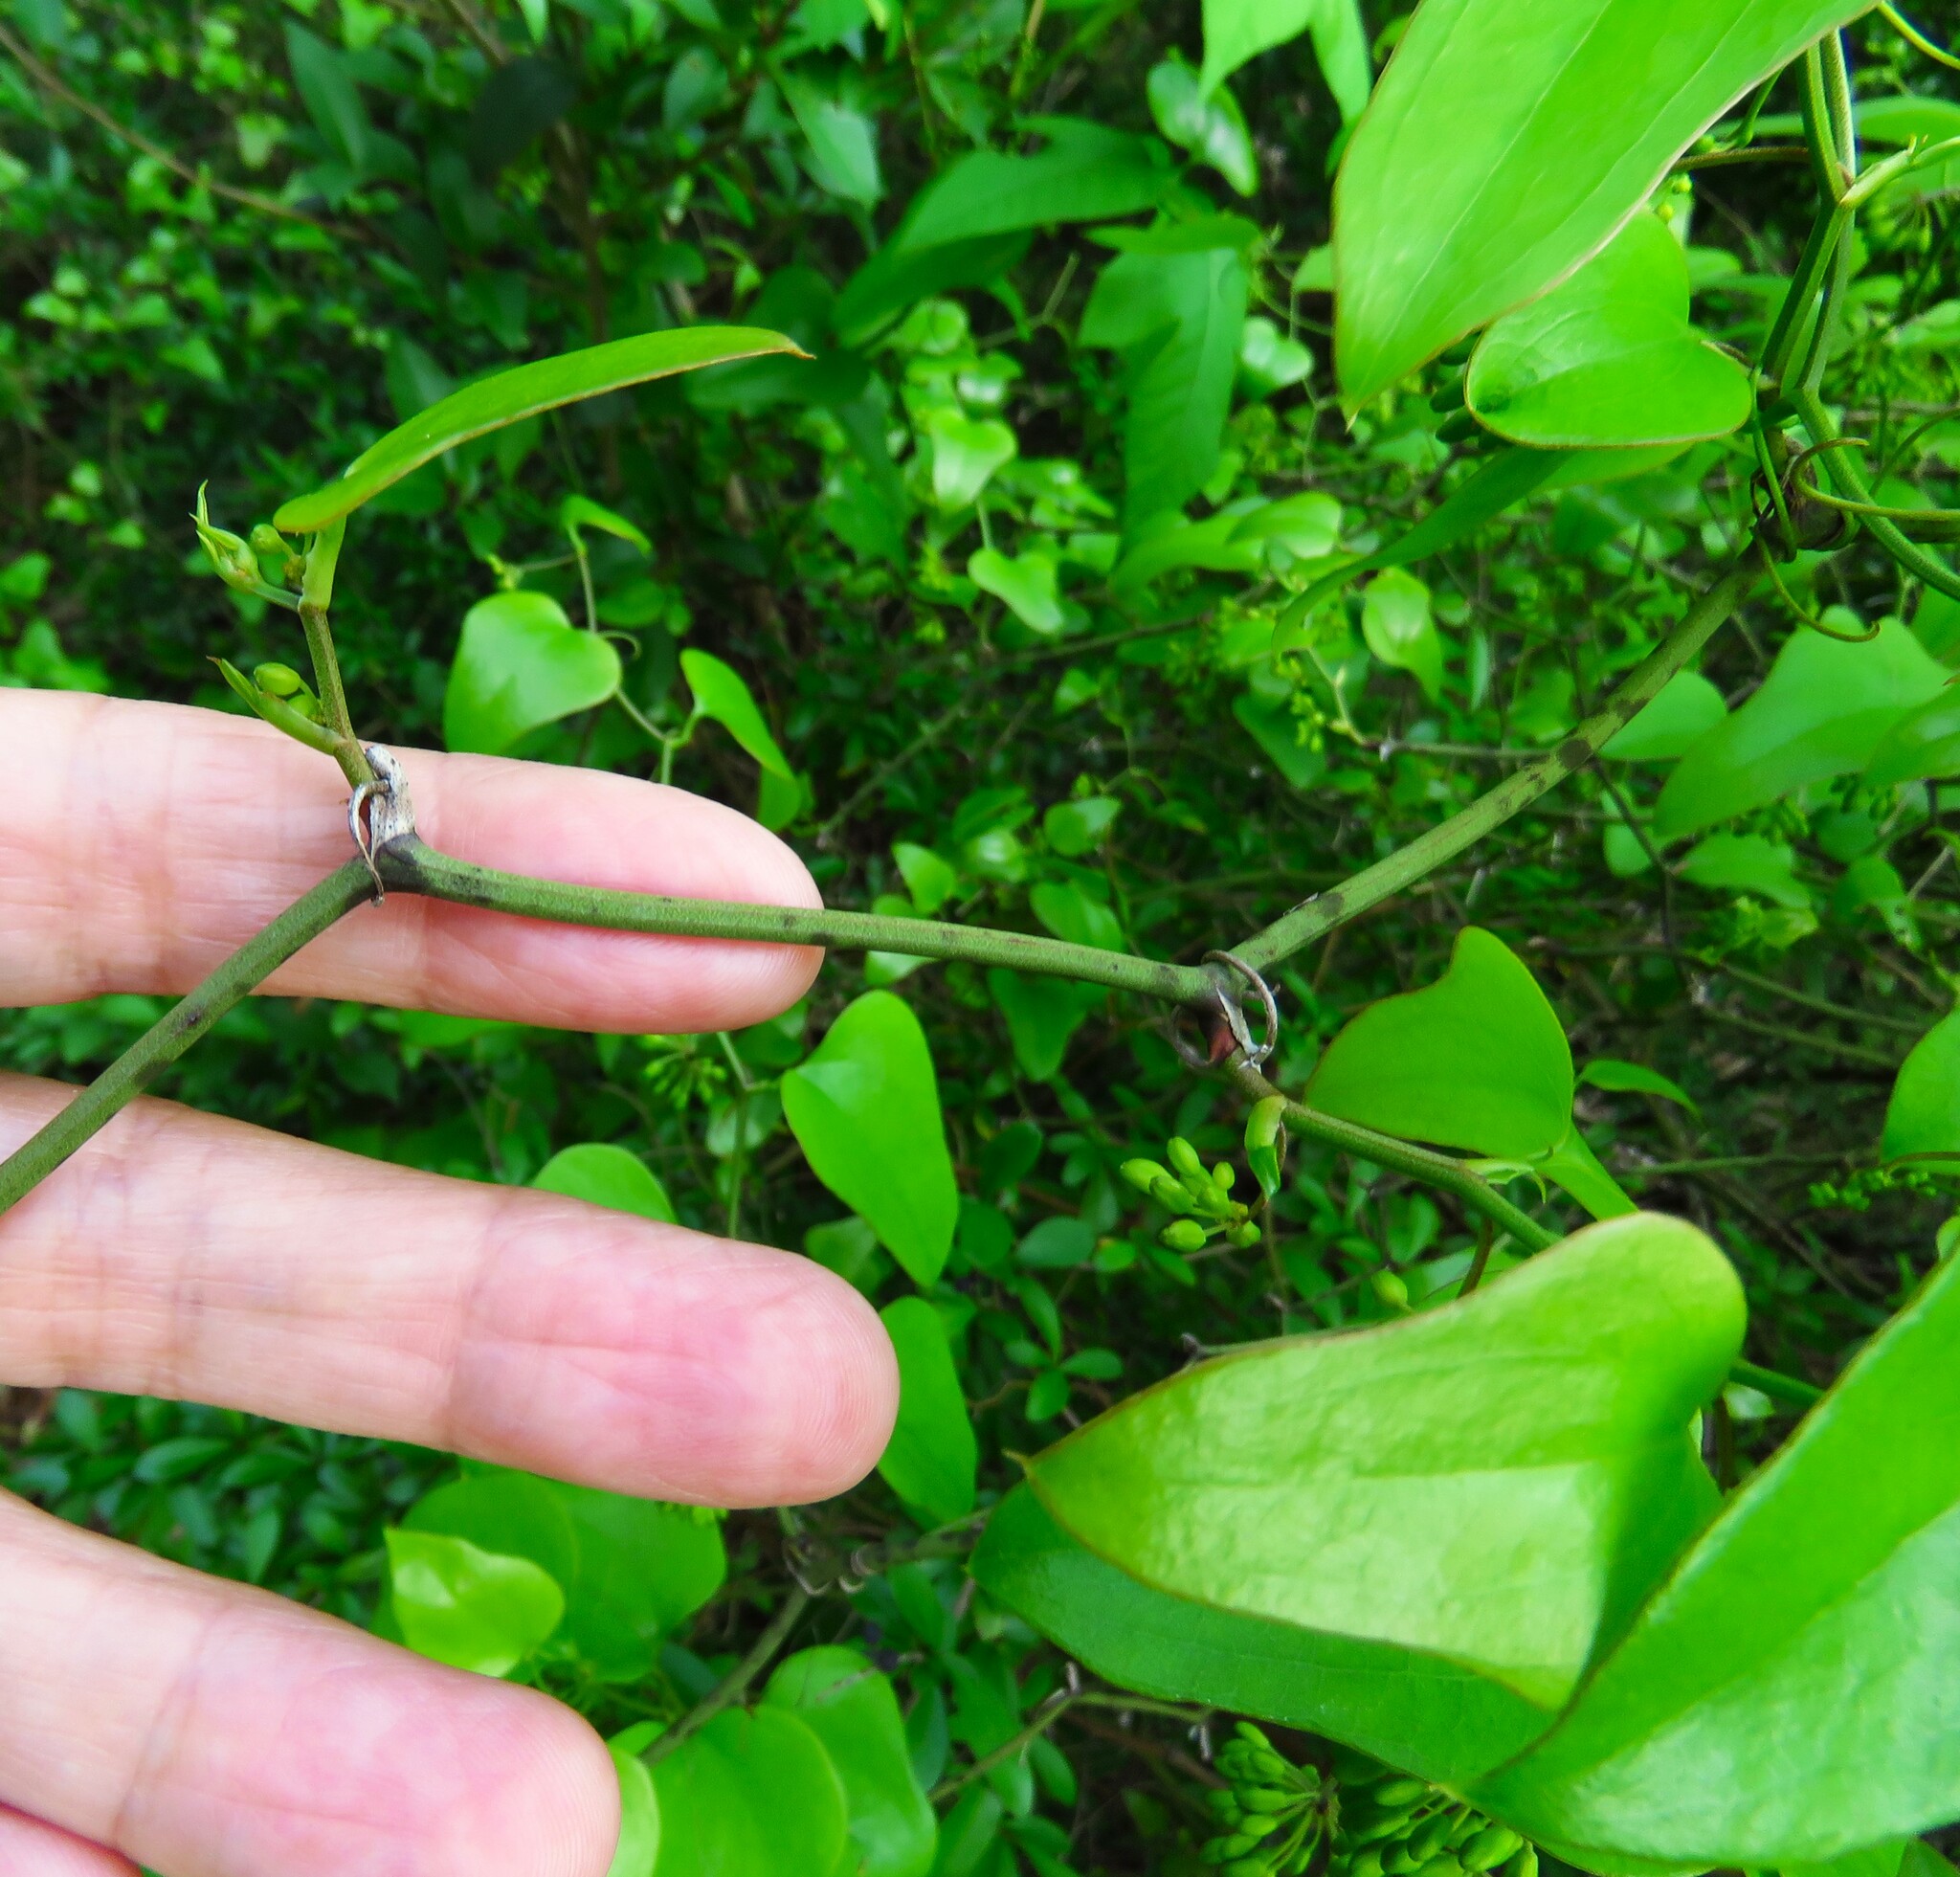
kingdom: Plantae
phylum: Tracheophyta
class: Liliopsida
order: Liliales
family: Smilacaceae
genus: Smilax
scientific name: Smilax bona-nox
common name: Catbrier
